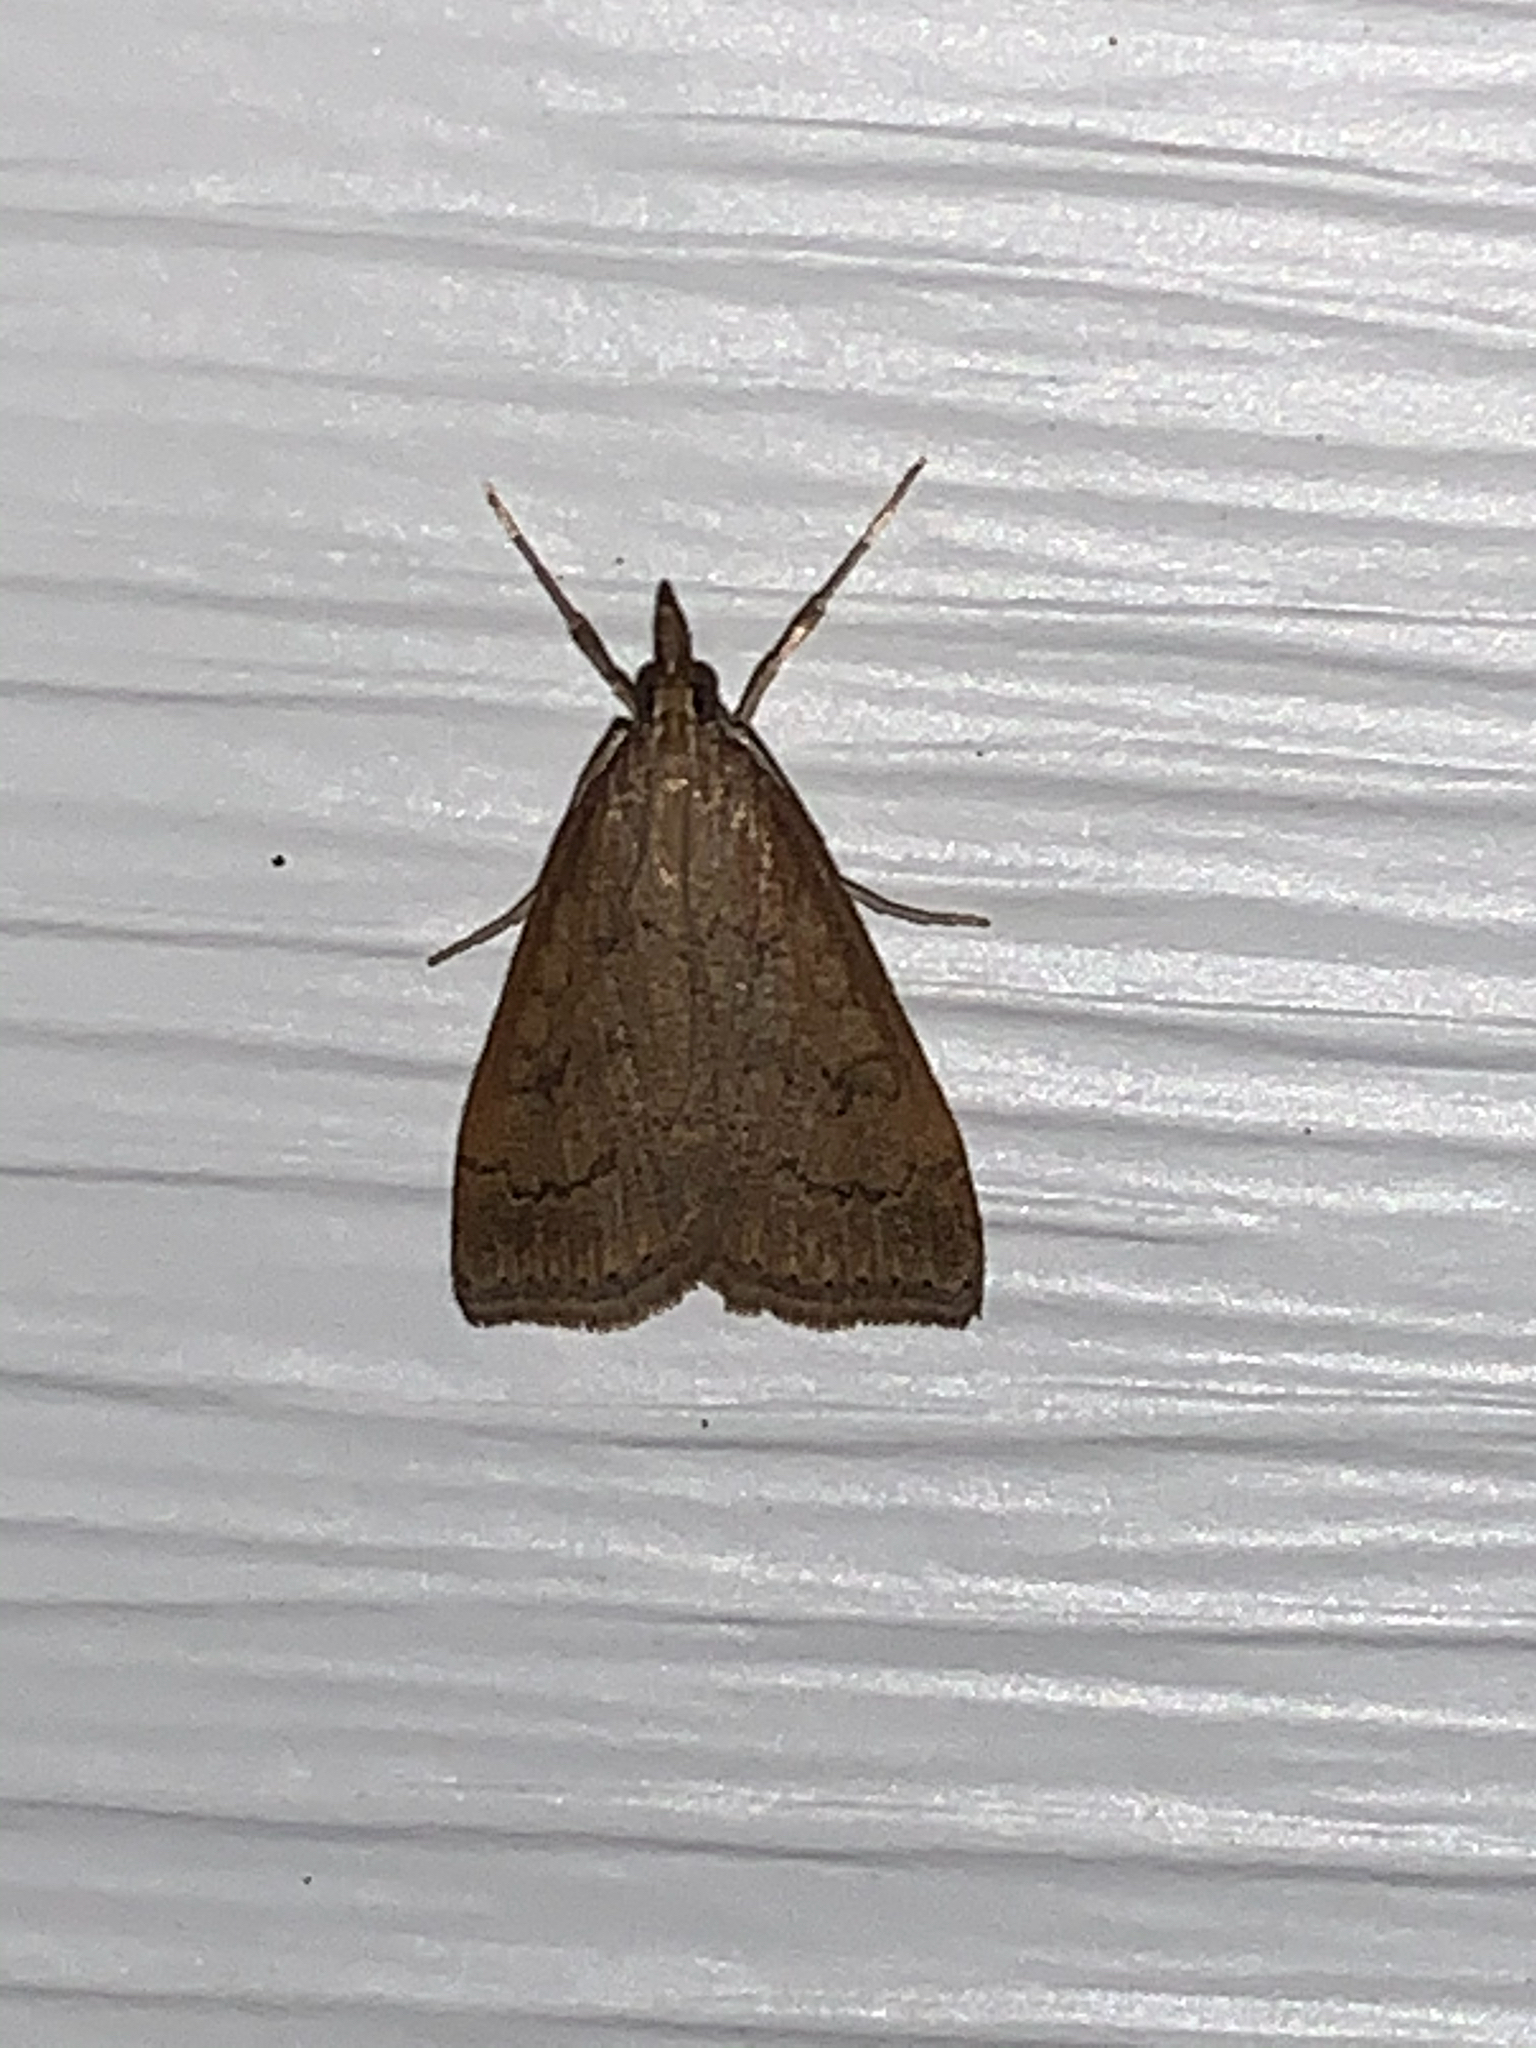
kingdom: Animalia
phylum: Arthropoda
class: Insecta
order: Lepidoptera
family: Crambidae
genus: Udea
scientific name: Udea rubigalis
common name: Celery leaftier moth
